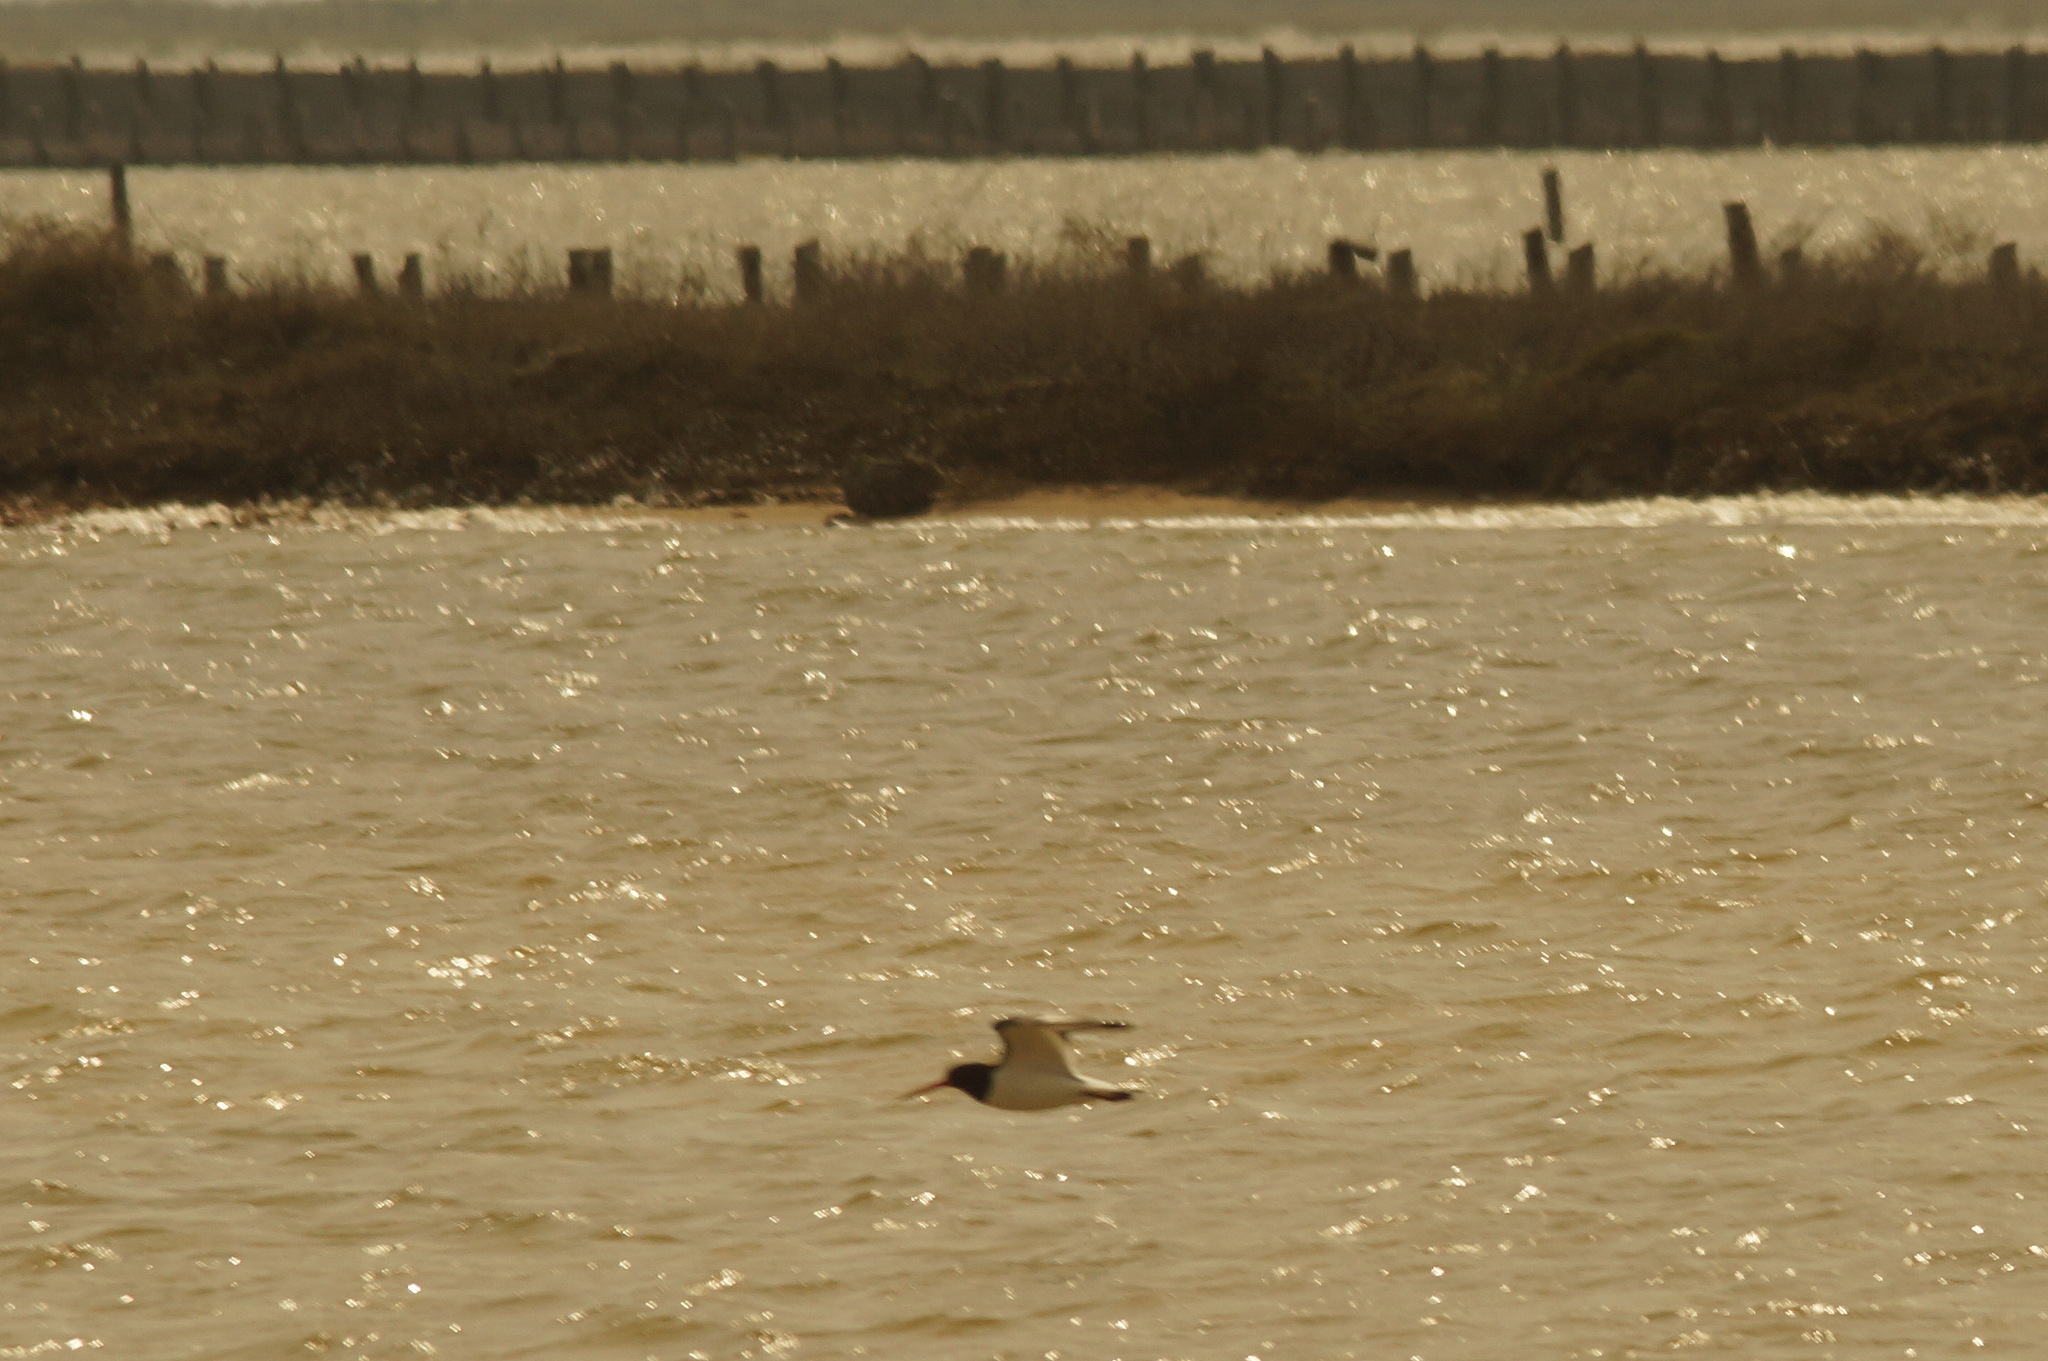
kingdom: Animalia
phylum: Chordata
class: Aves
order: Charadriiformes
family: Haematopodidae
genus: Haematopus
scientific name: Haematopus ostralegus
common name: Eurasian oystercatcher
